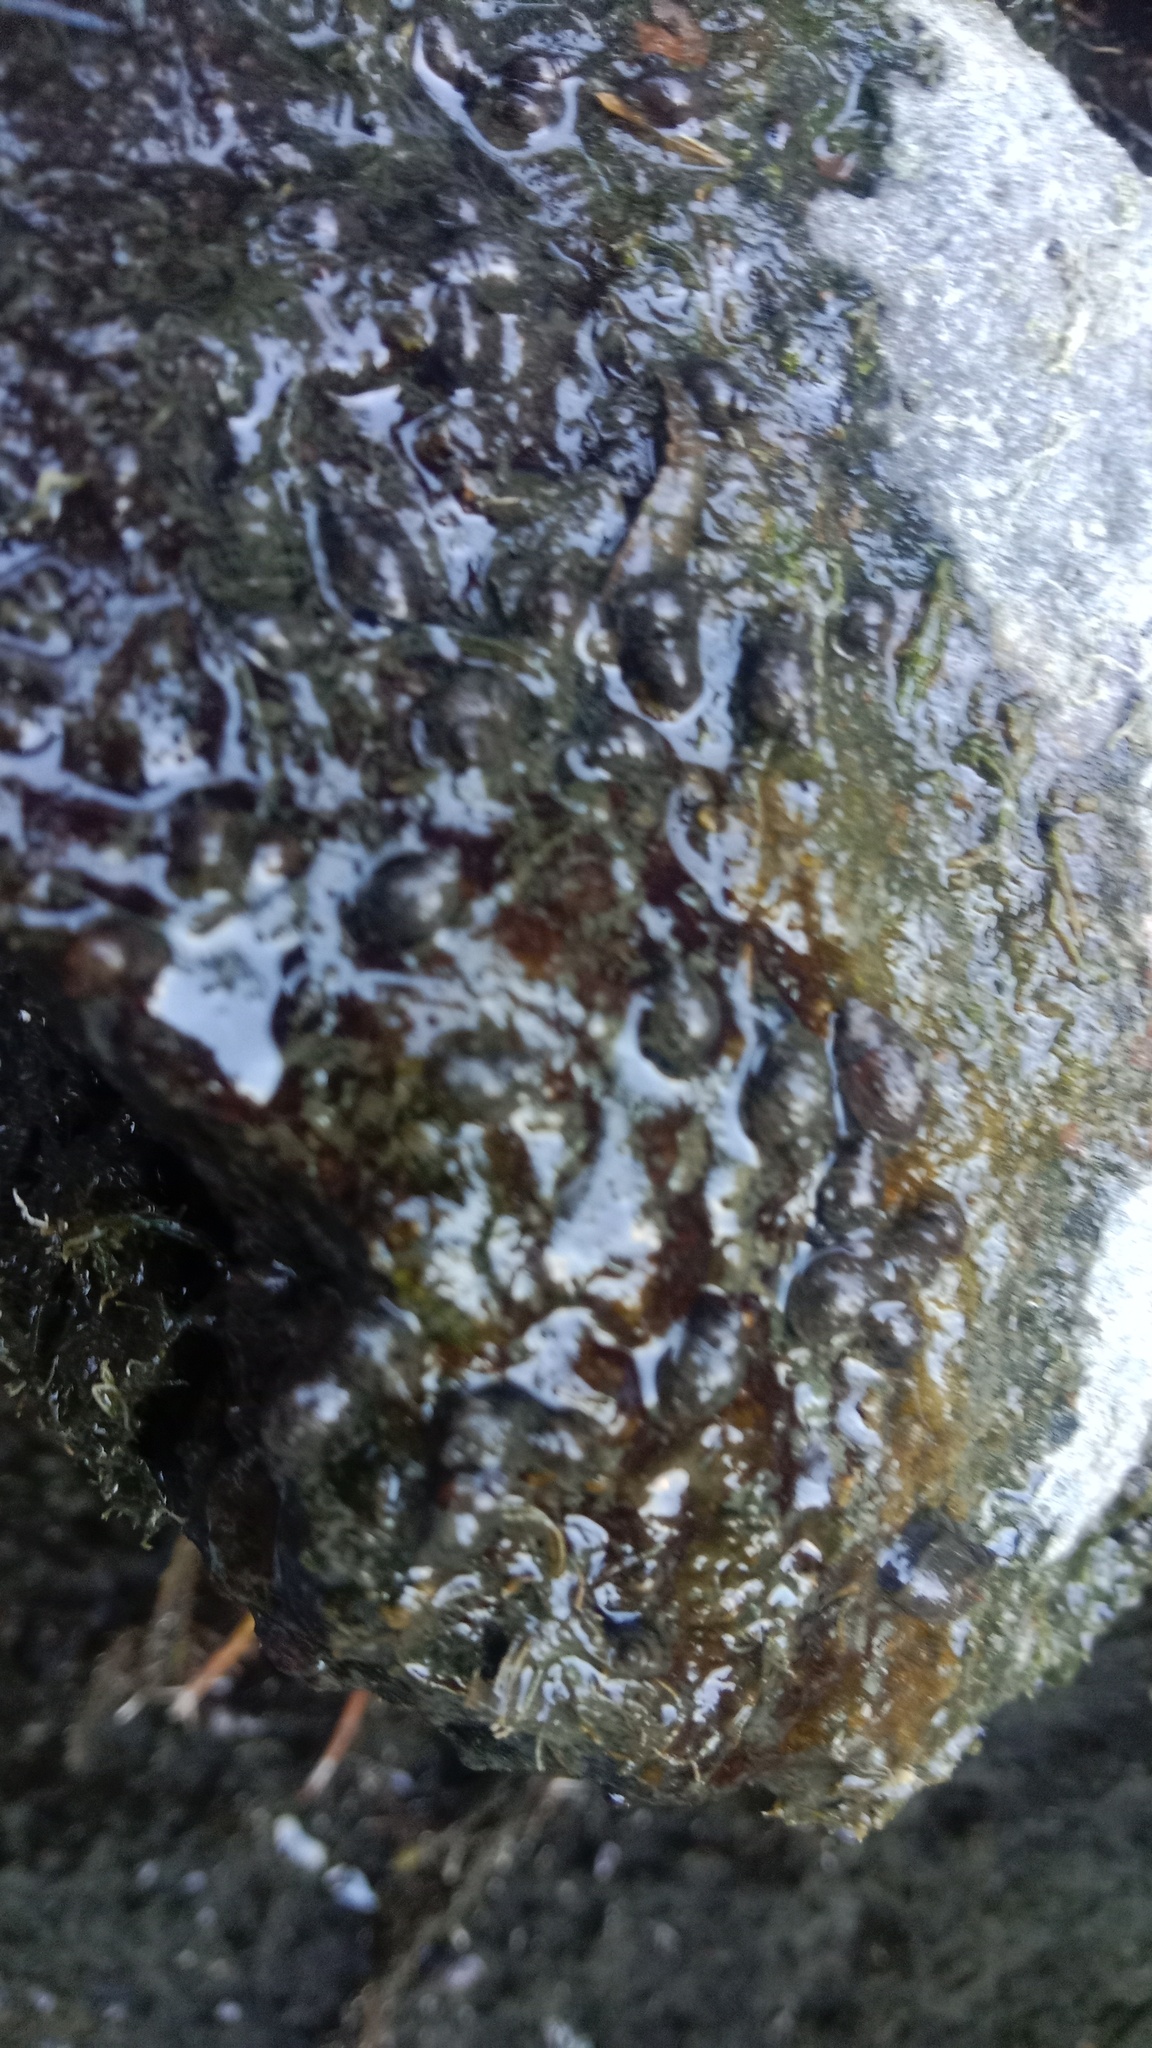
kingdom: Animalia
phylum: Mollusca
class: Gastropoda
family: Lymnaeidae
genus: Galba
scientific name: Galba truncatula
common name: Dwarf pond snail
